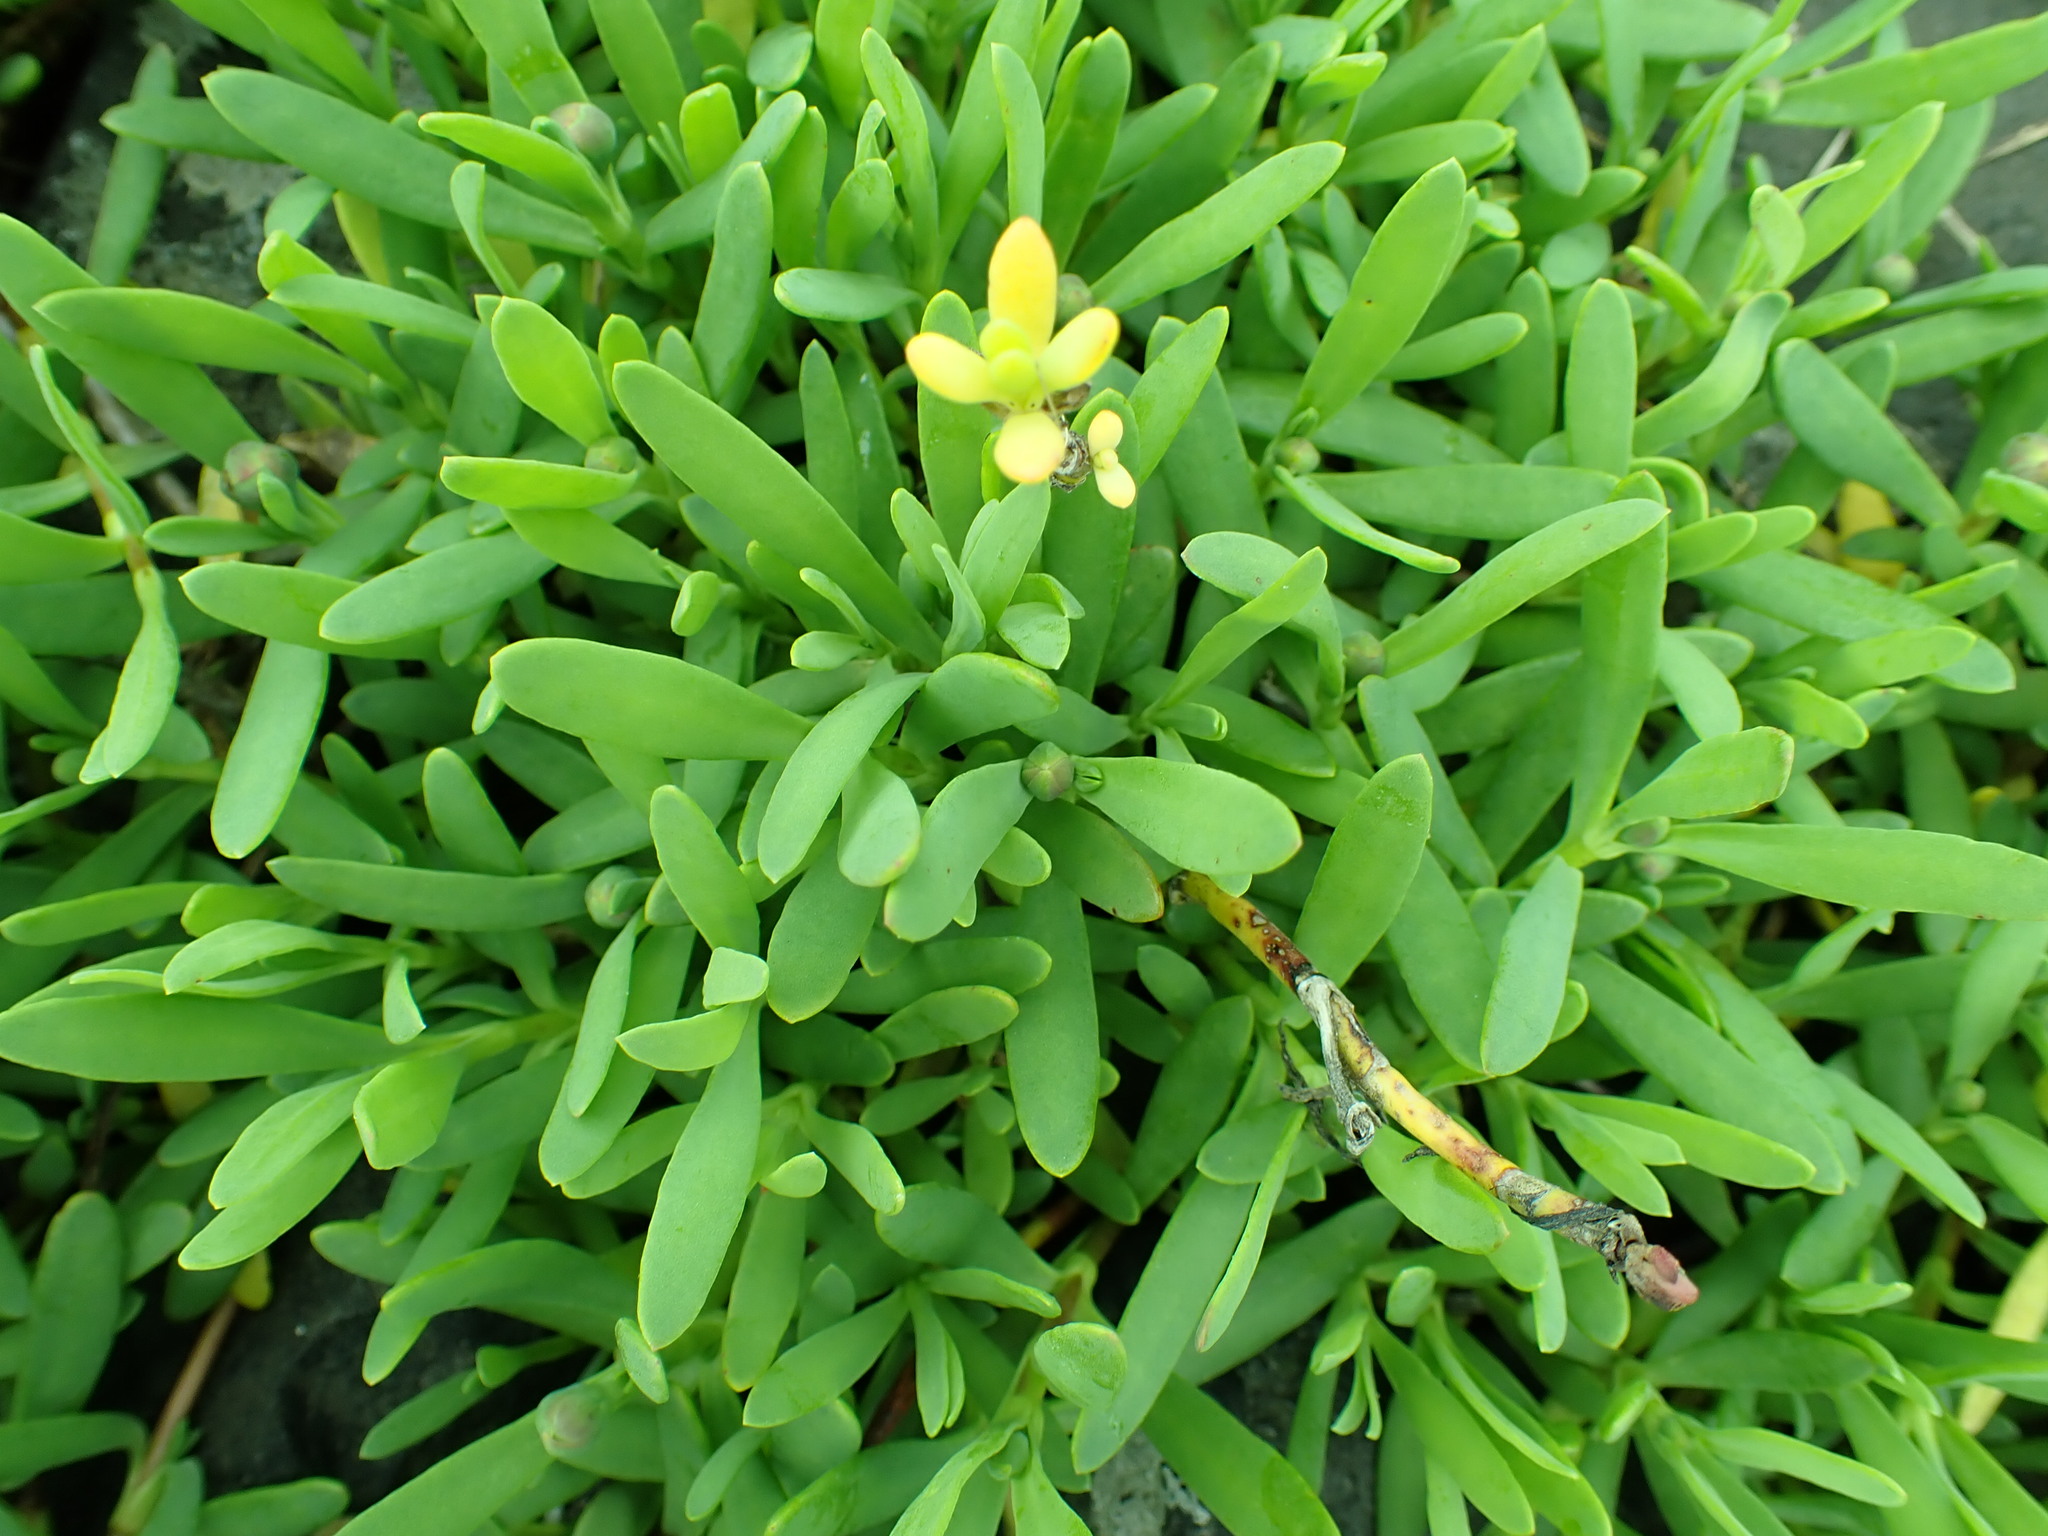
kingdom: Plantae
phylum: Tracheophyta
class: Magnoliopsida
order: Asterales
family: Asteraceae
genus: Jaumea
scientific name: Jaumea carnosa
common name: Fleshy jaumea
